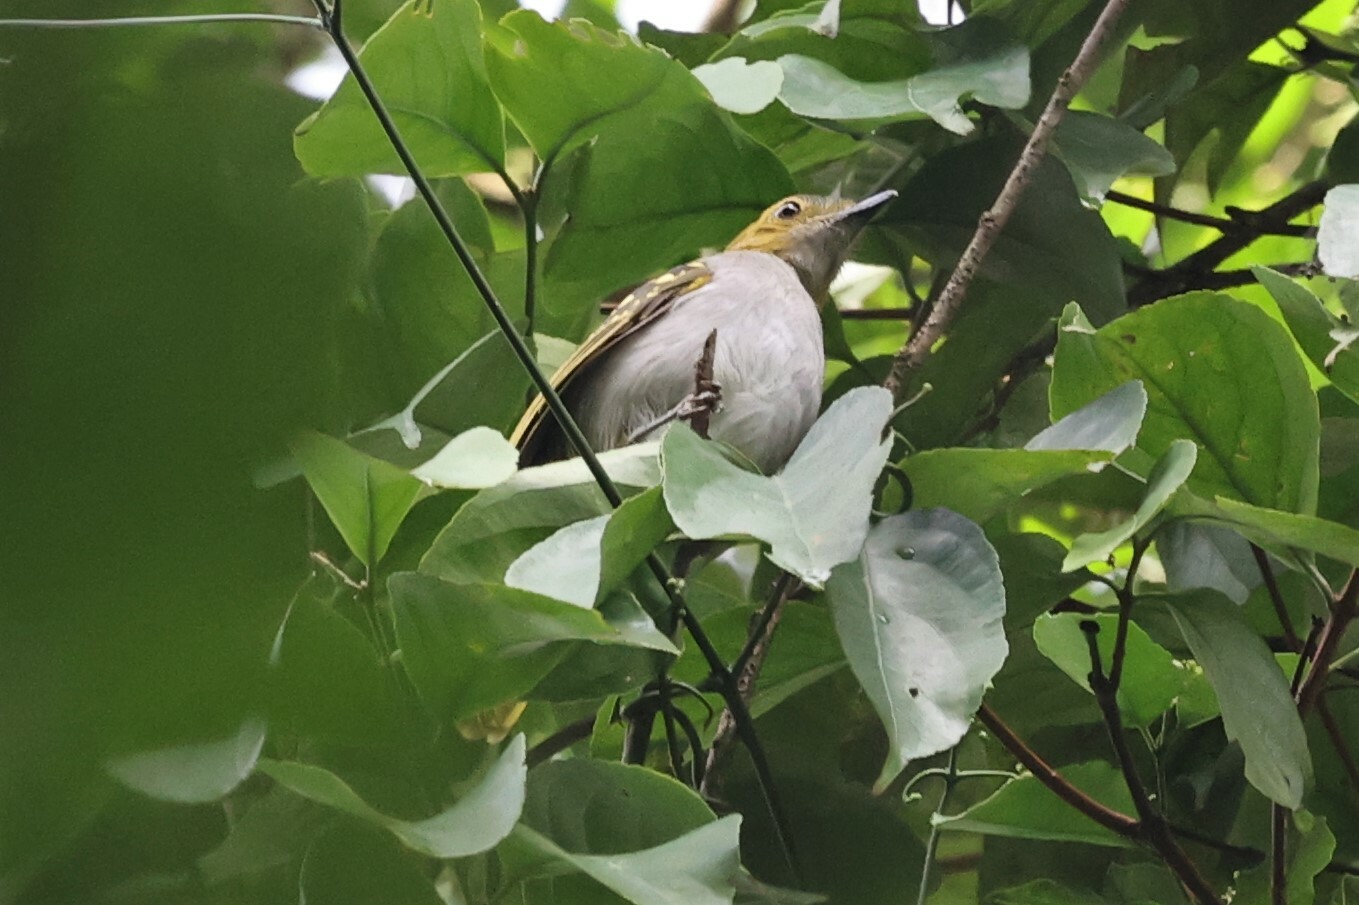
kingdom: Animalia
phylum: Chordata
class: Aves
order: Passeriformes
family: Nicatoridae
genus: Nicator
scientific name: Nicator chloris
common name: Western nicator
